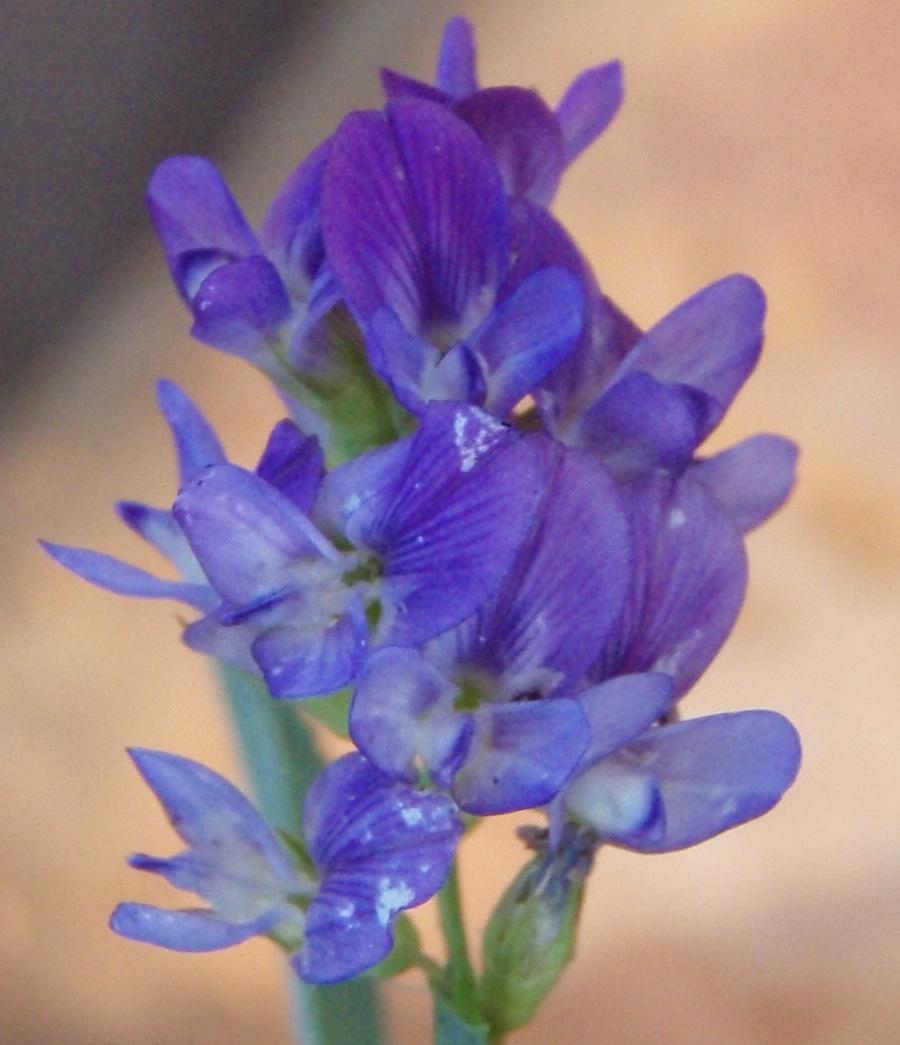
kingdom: Plantae
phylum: Tracheophyta
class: Magnoliopsida
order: Fabales
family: Fabaceae
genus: Medicago
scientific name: Medicago sativa
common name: Alfalfa
